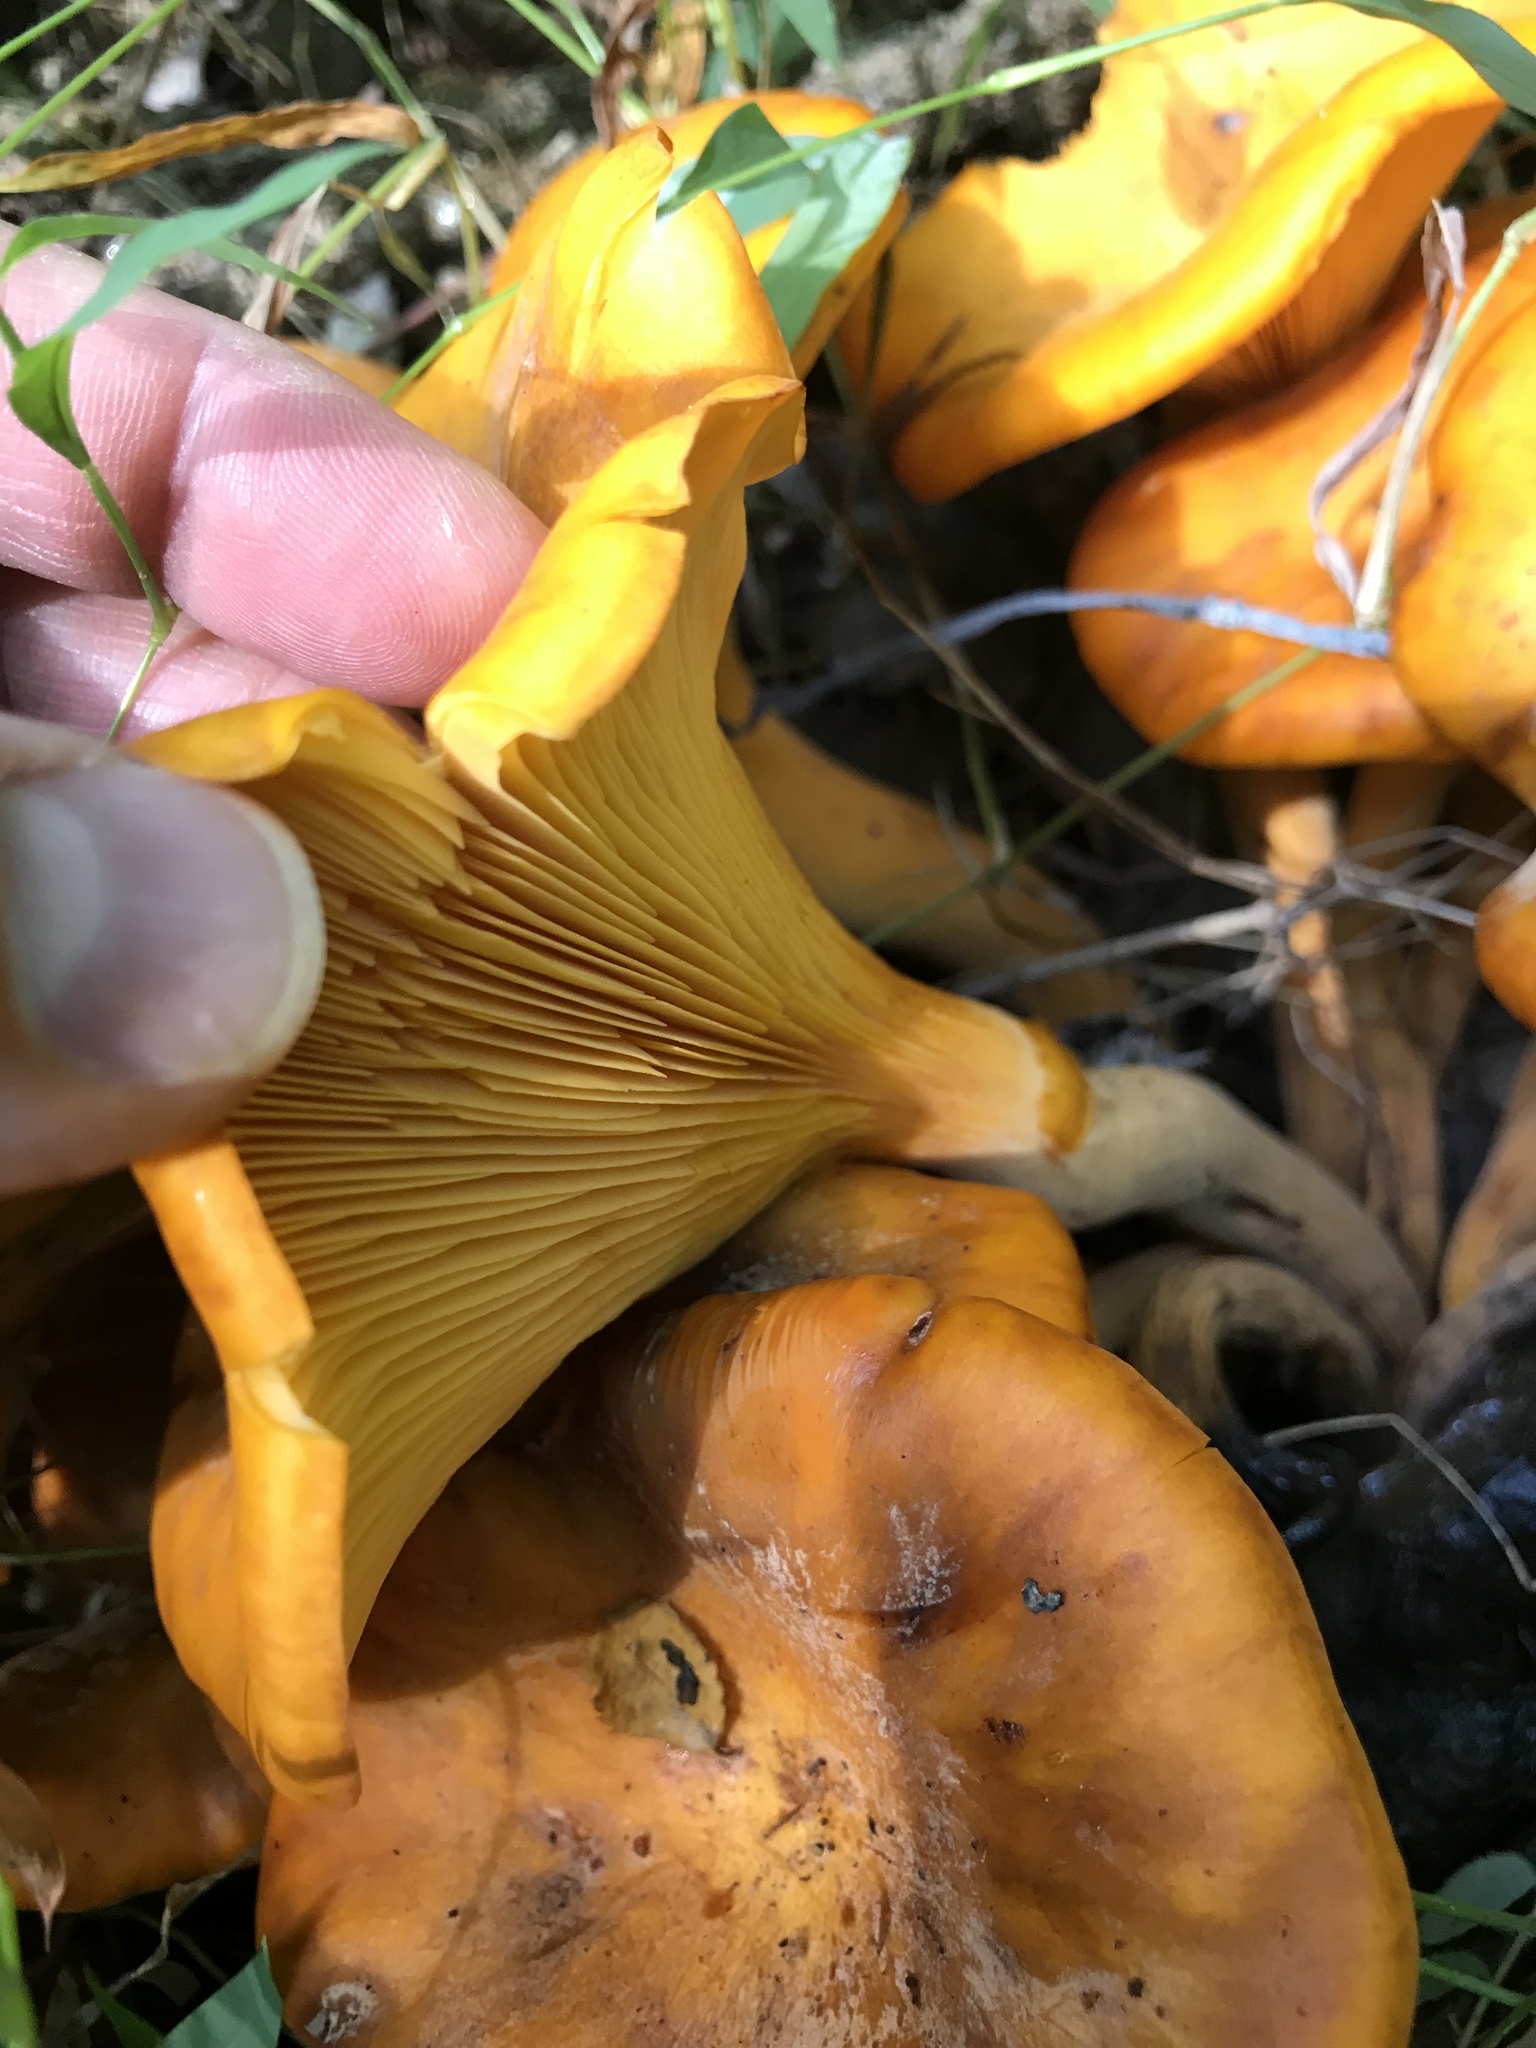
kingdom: Fungi
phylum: Basidiomycota
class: Agaricomycetes
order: Agaricales
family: Omphalotaceae
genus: Omphalotus
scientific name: Omphalotus illudens
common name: Jack o lantern
